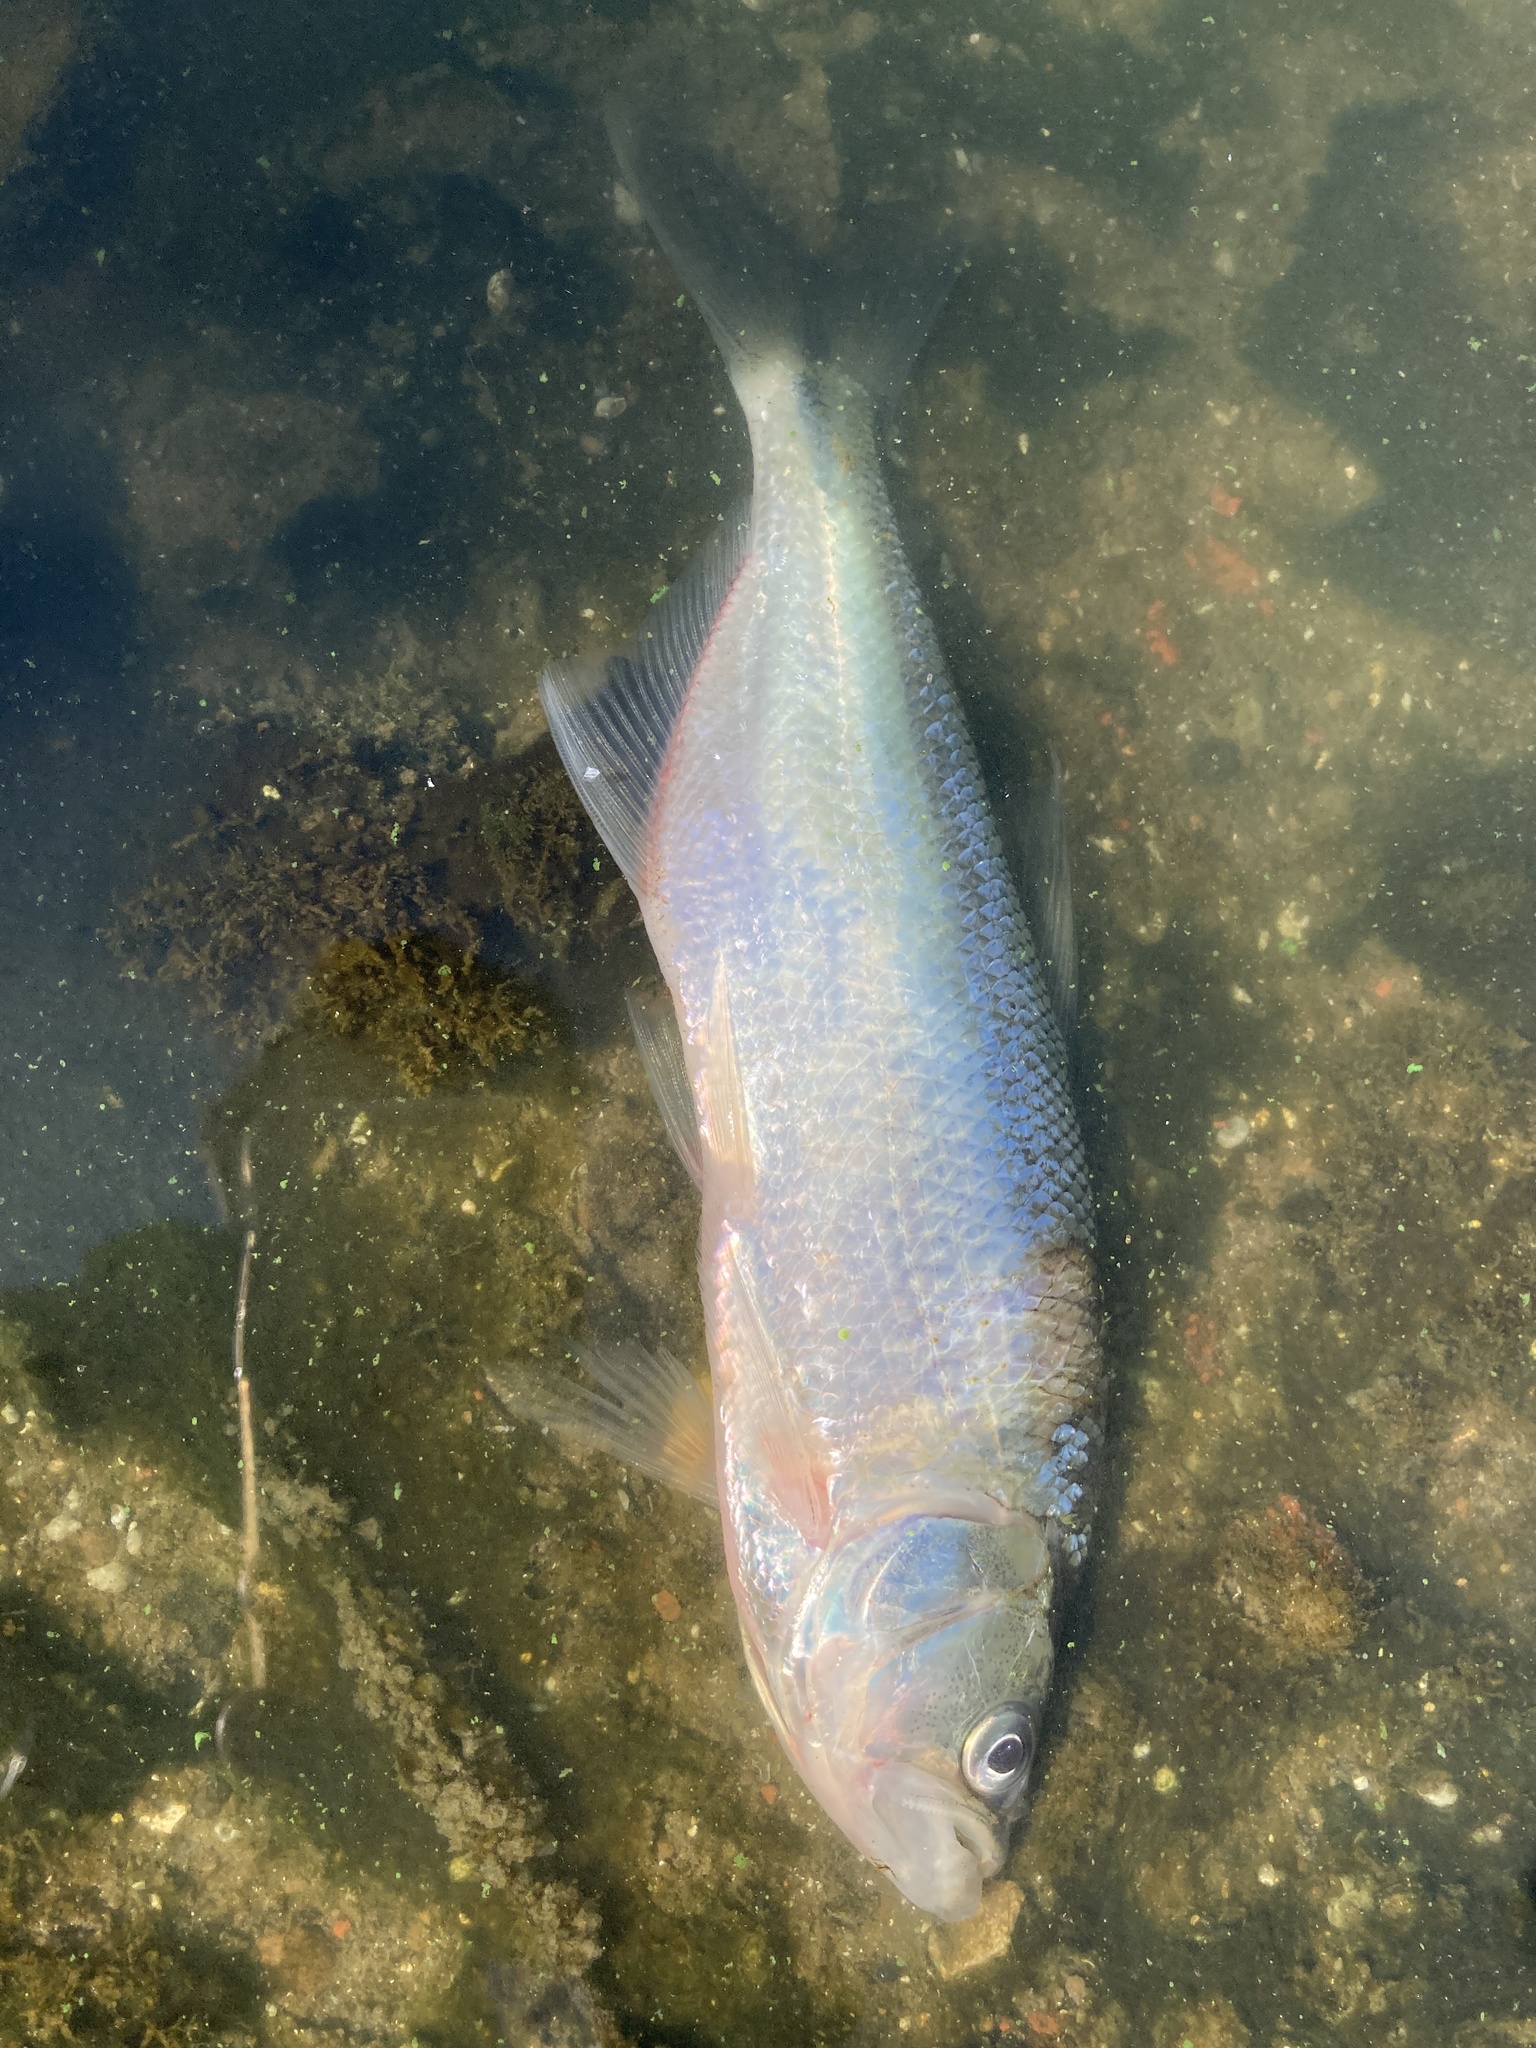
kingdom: Animalia
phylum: Chordata
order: Characiformes
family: Characidae
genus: Oligosarcus
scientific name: Oligosarcus jenynsii
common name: Pike characin
